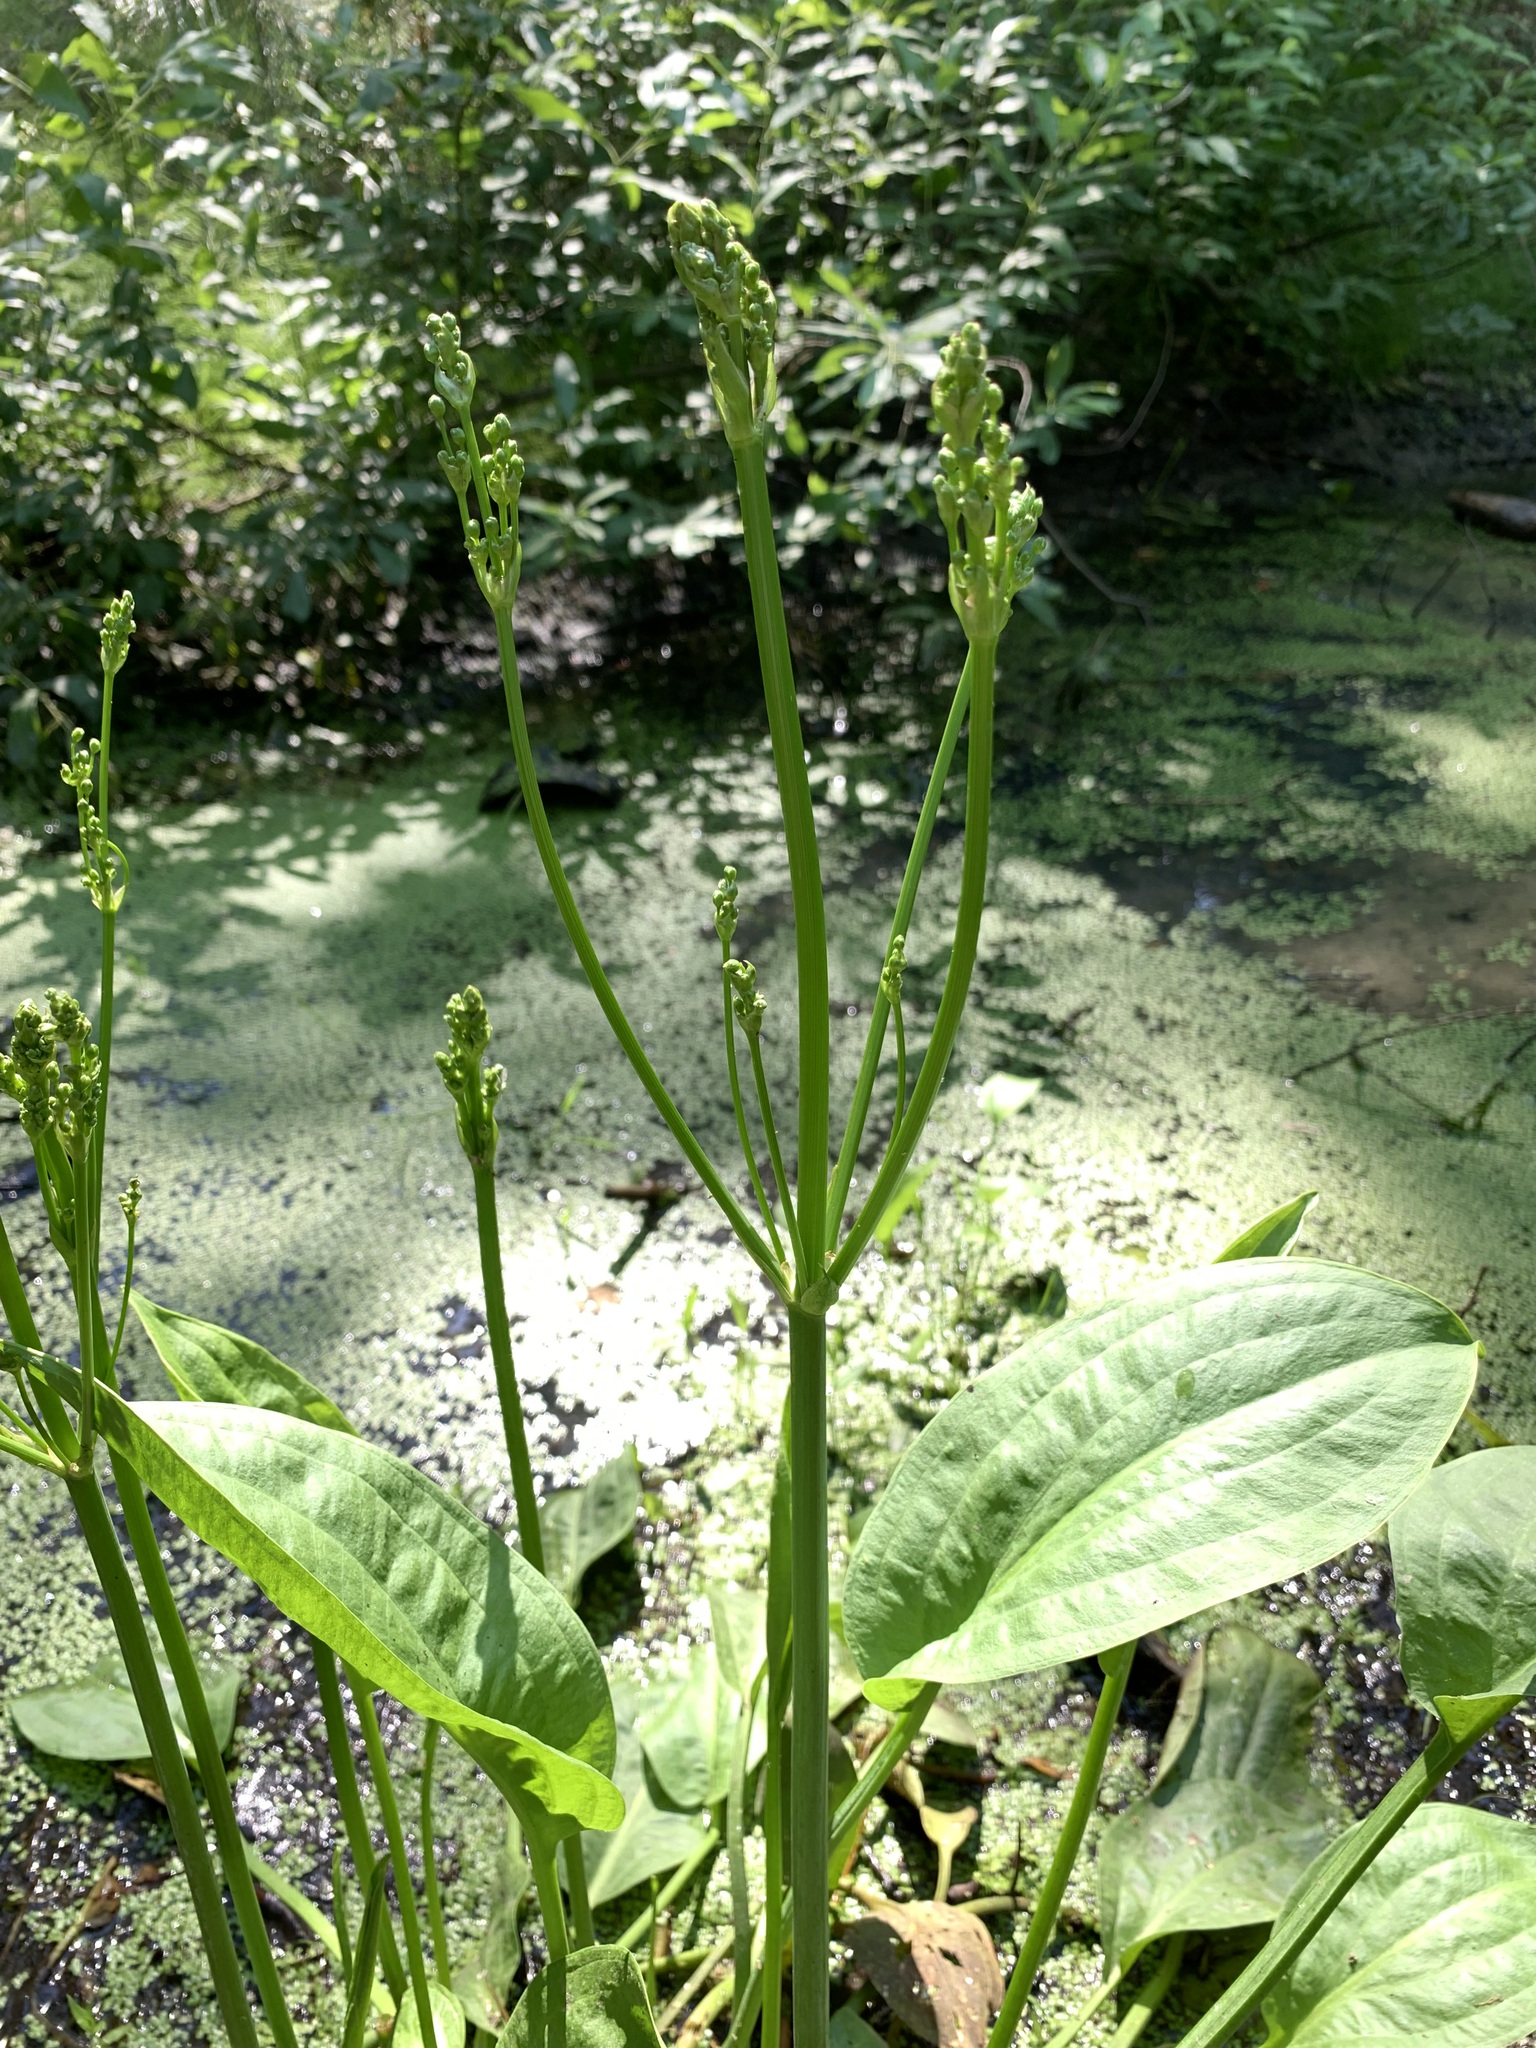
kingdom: Plantae
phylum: Tracheophyta
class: Liliopsida
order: Alismatales
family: Alismataceae
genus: Alisma
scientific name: Alisma plantago-aquatica
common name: Water-plantain
